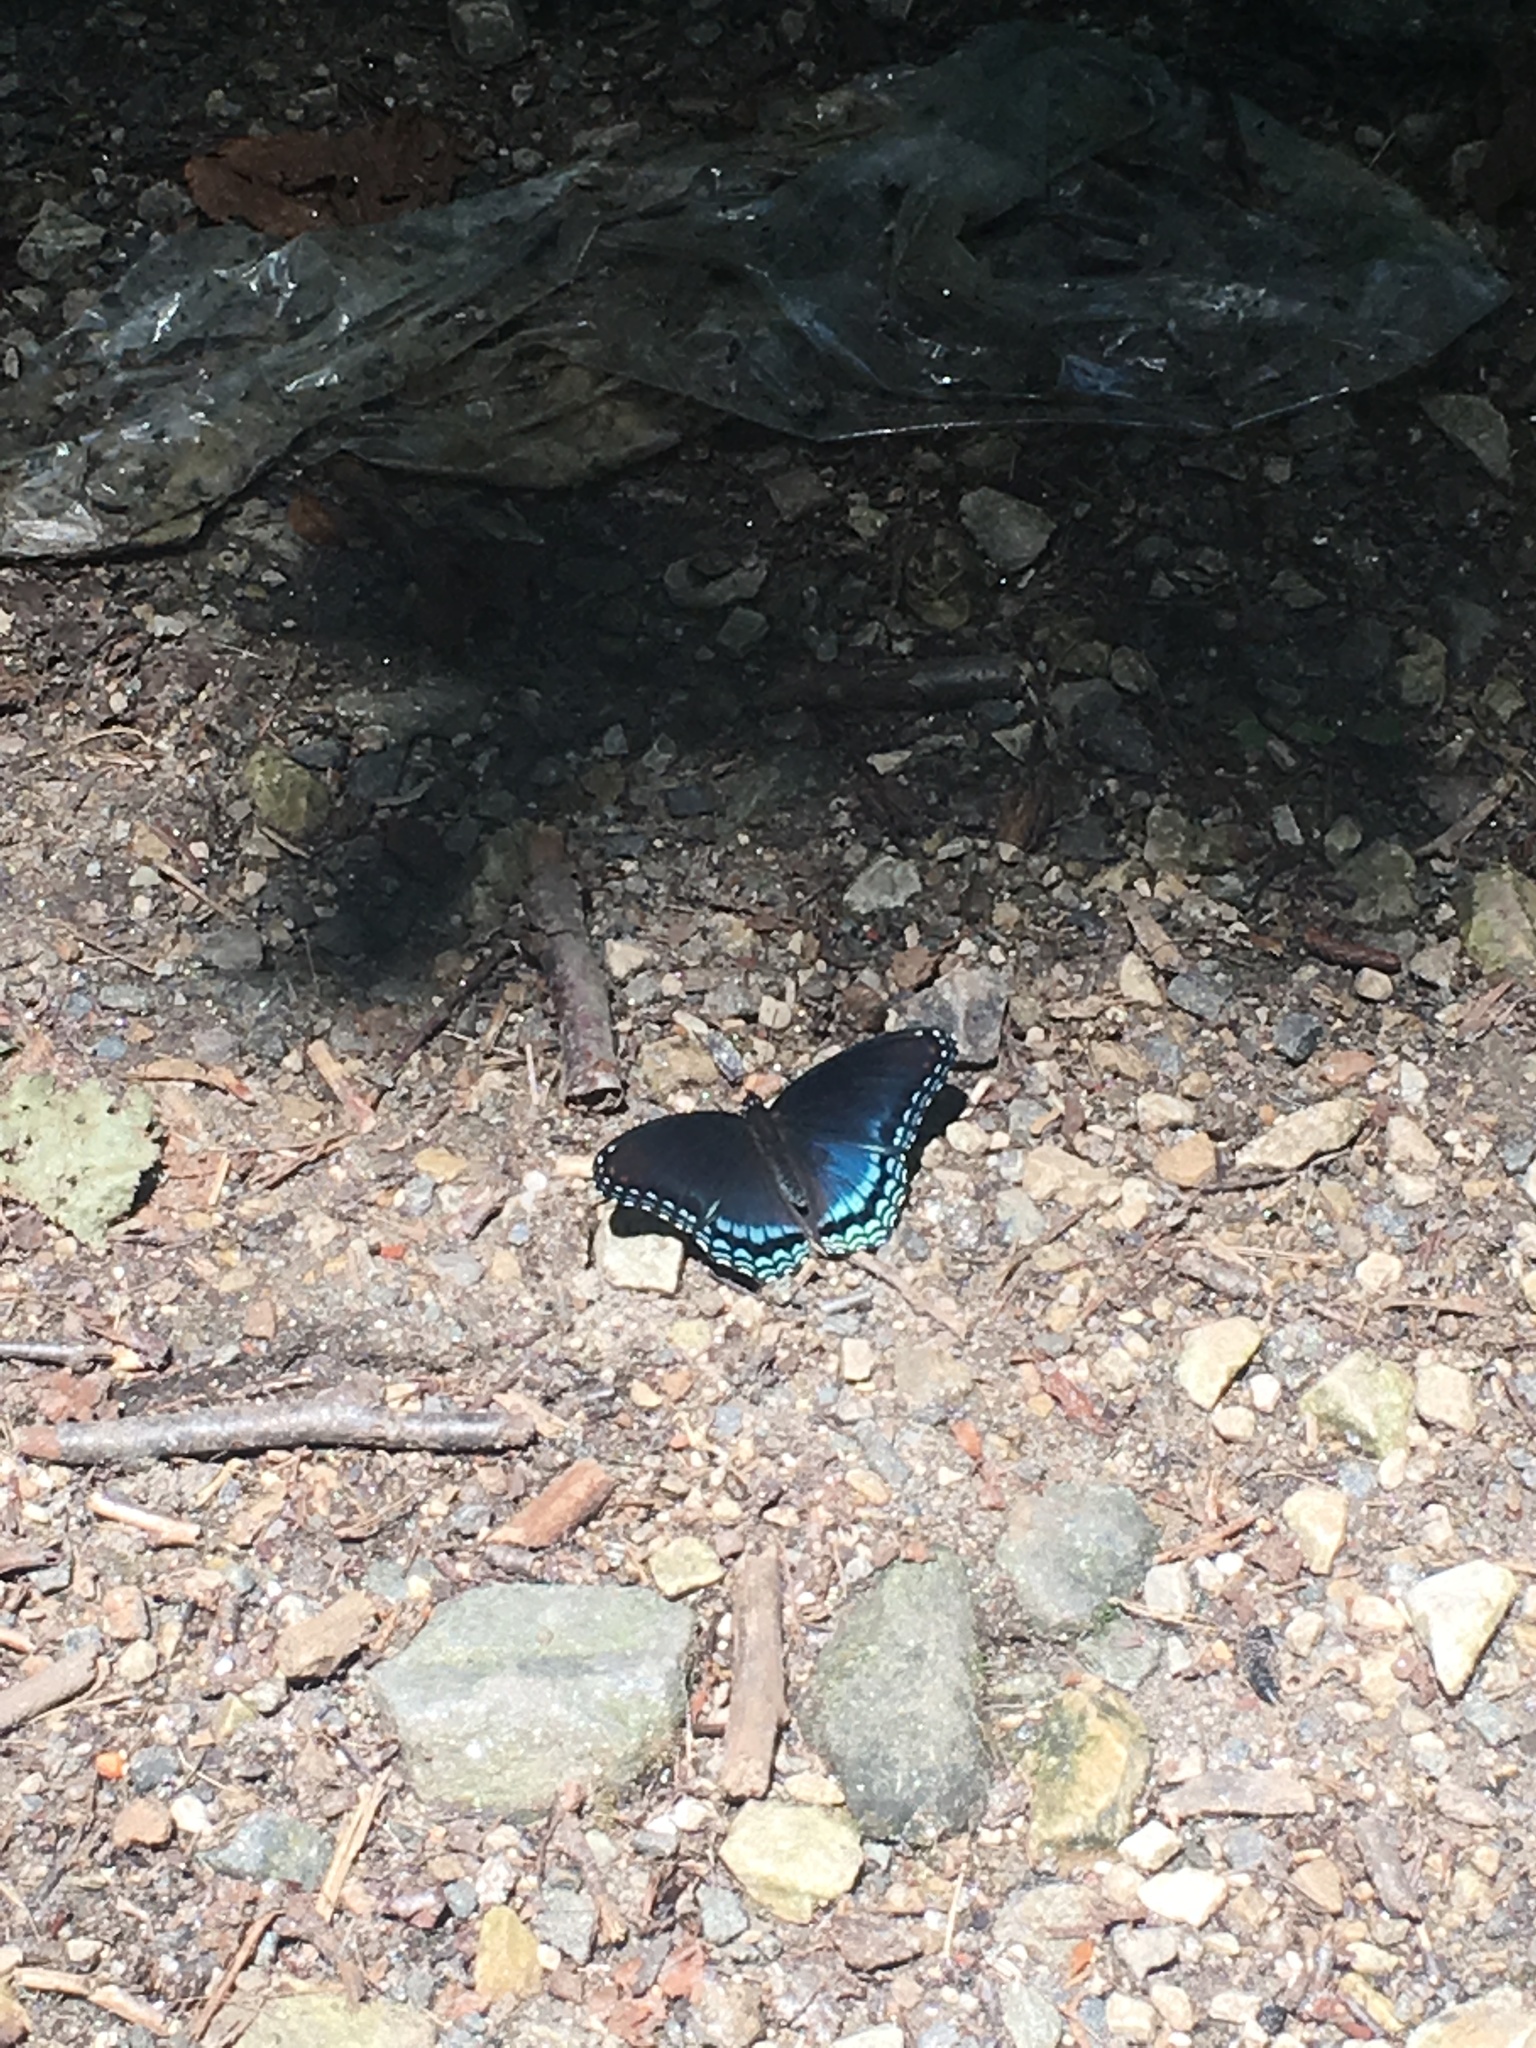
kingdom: Animalia
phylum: Arthropoda
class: Insecta
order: Lepidoptera
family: Nymphalidae
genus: Limenitis
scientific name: Limenitis astyanax
